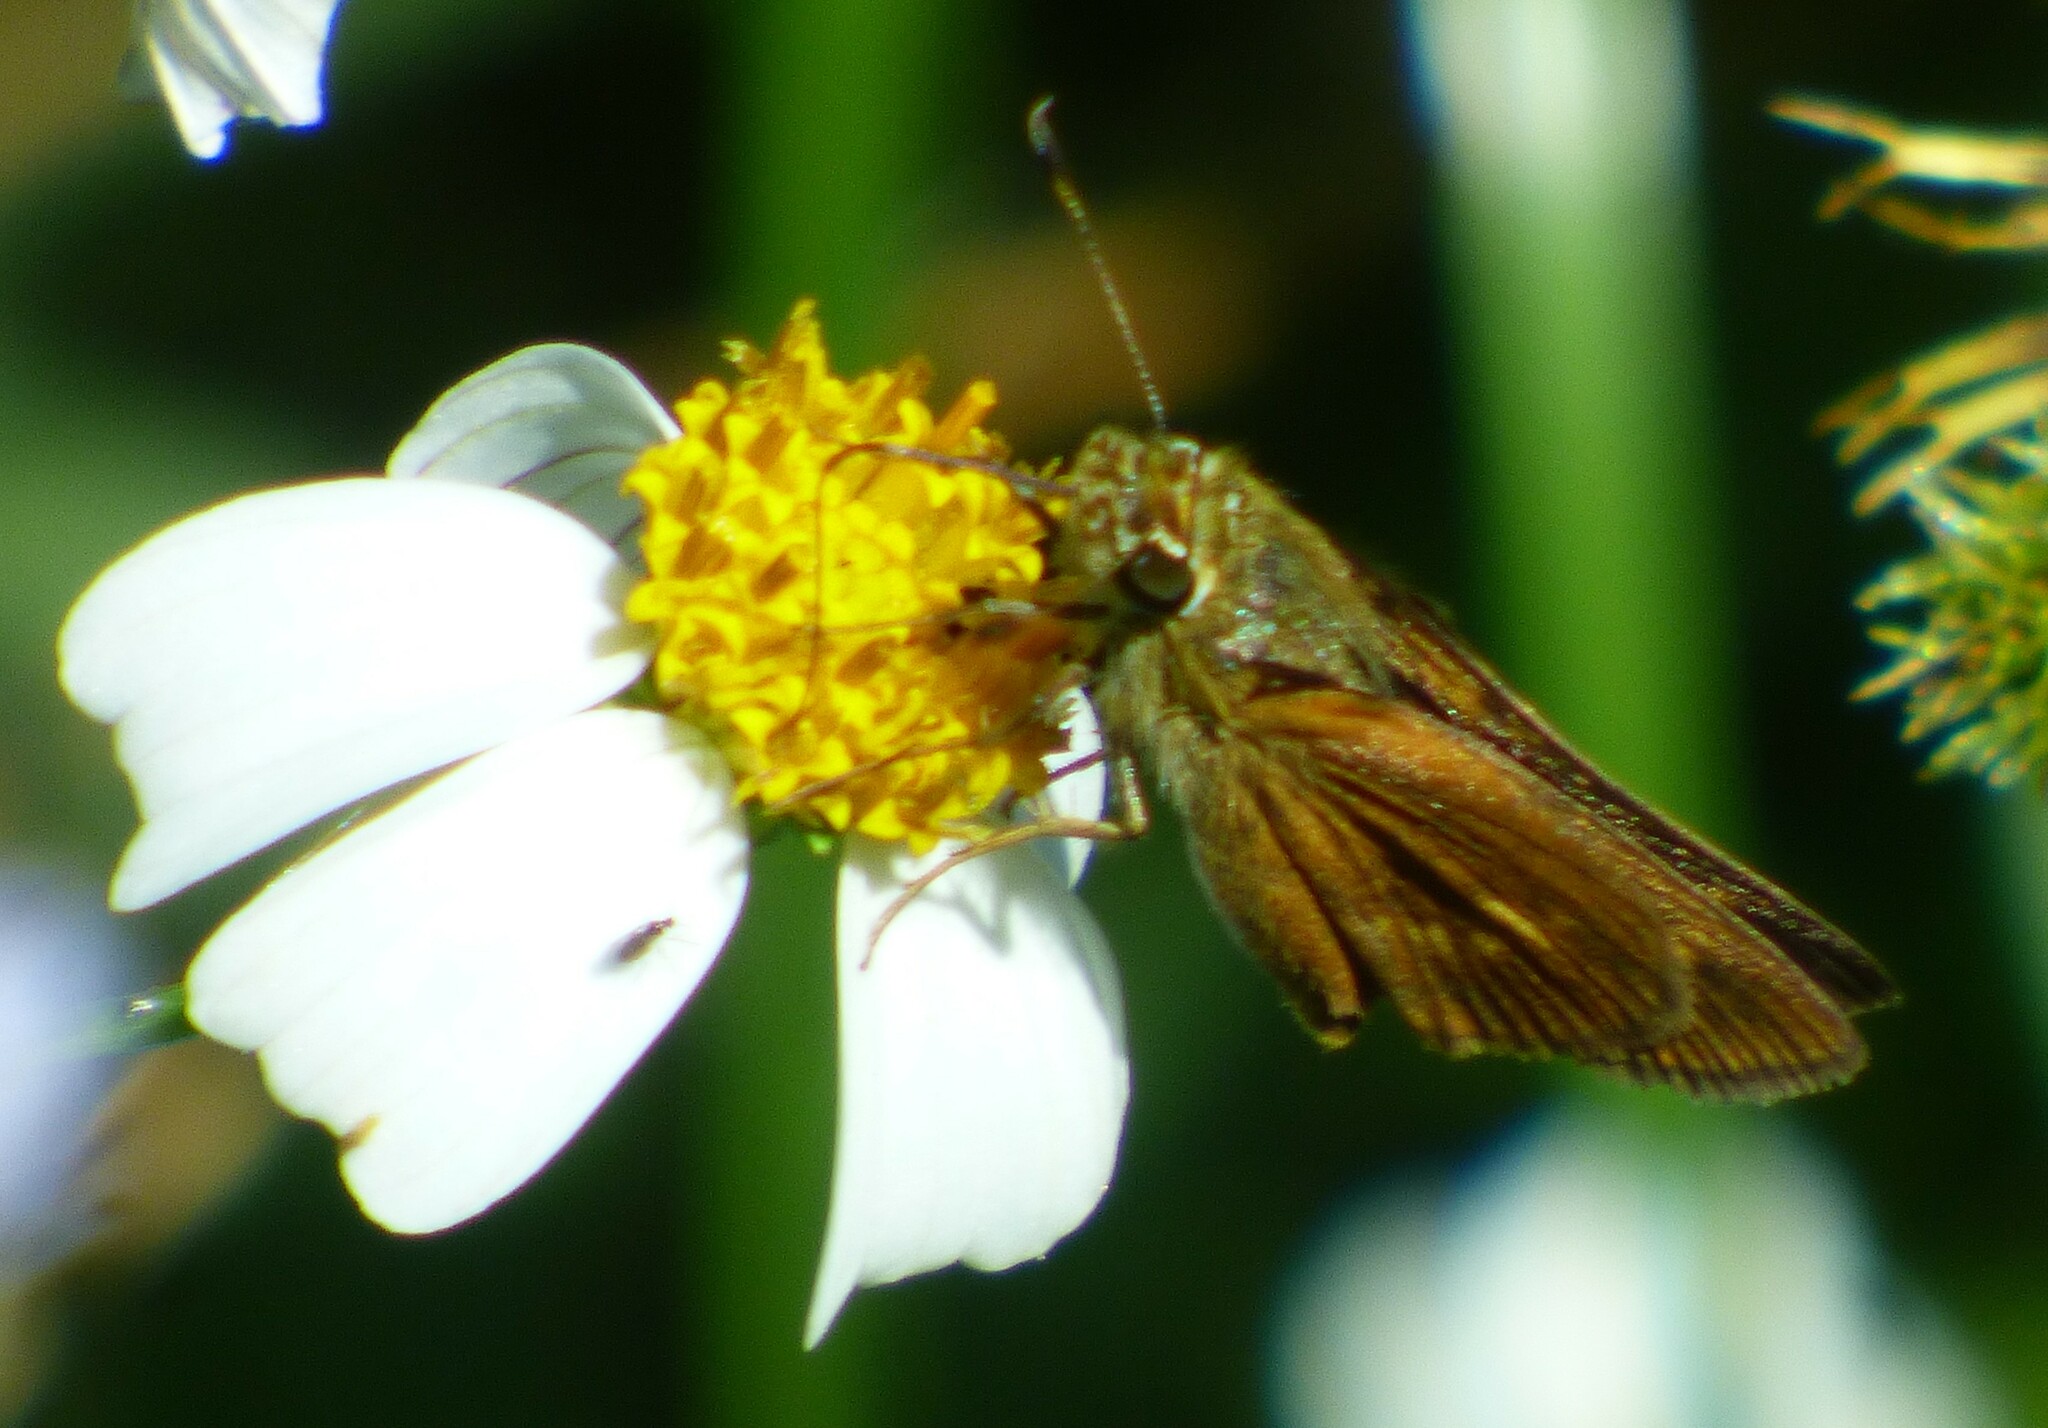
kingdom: Animalia
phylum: Arthropoda
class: Insecta
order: Lepidoptera
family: Hesperiidae
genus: Polites
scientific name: Polites otho
